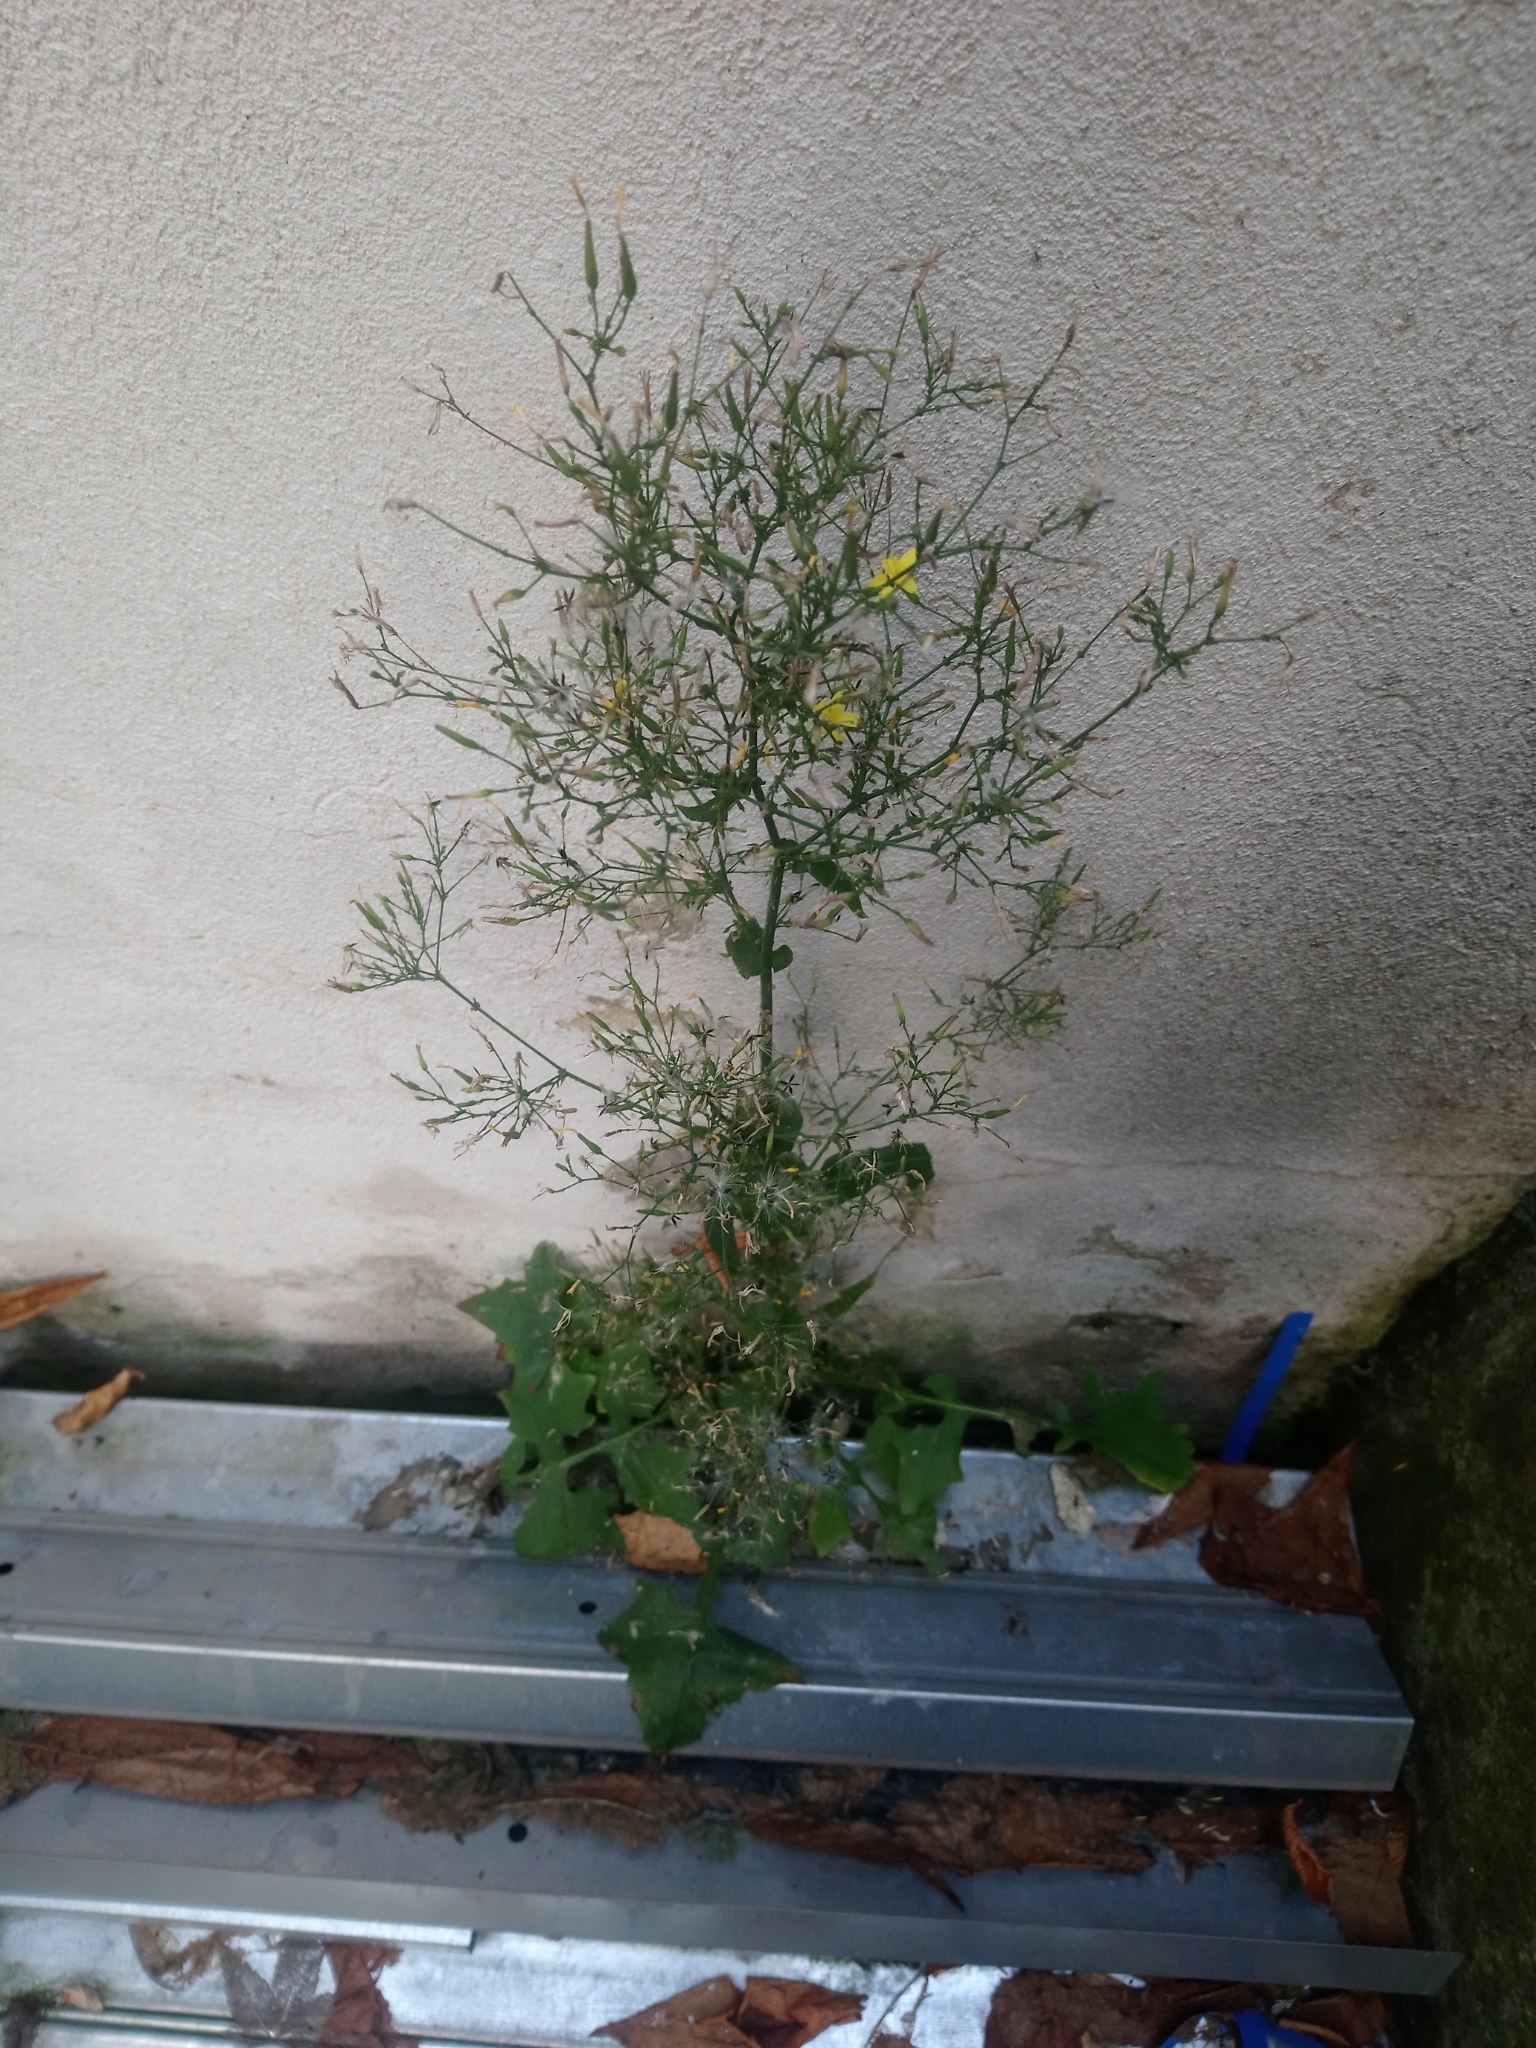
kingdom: Plantae
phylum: Tracheophyta
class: Magnoliopsida
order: Asterales
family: Asteraceae
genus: Mycelis
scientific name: Mycelis muralis
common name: Wall lettuce
